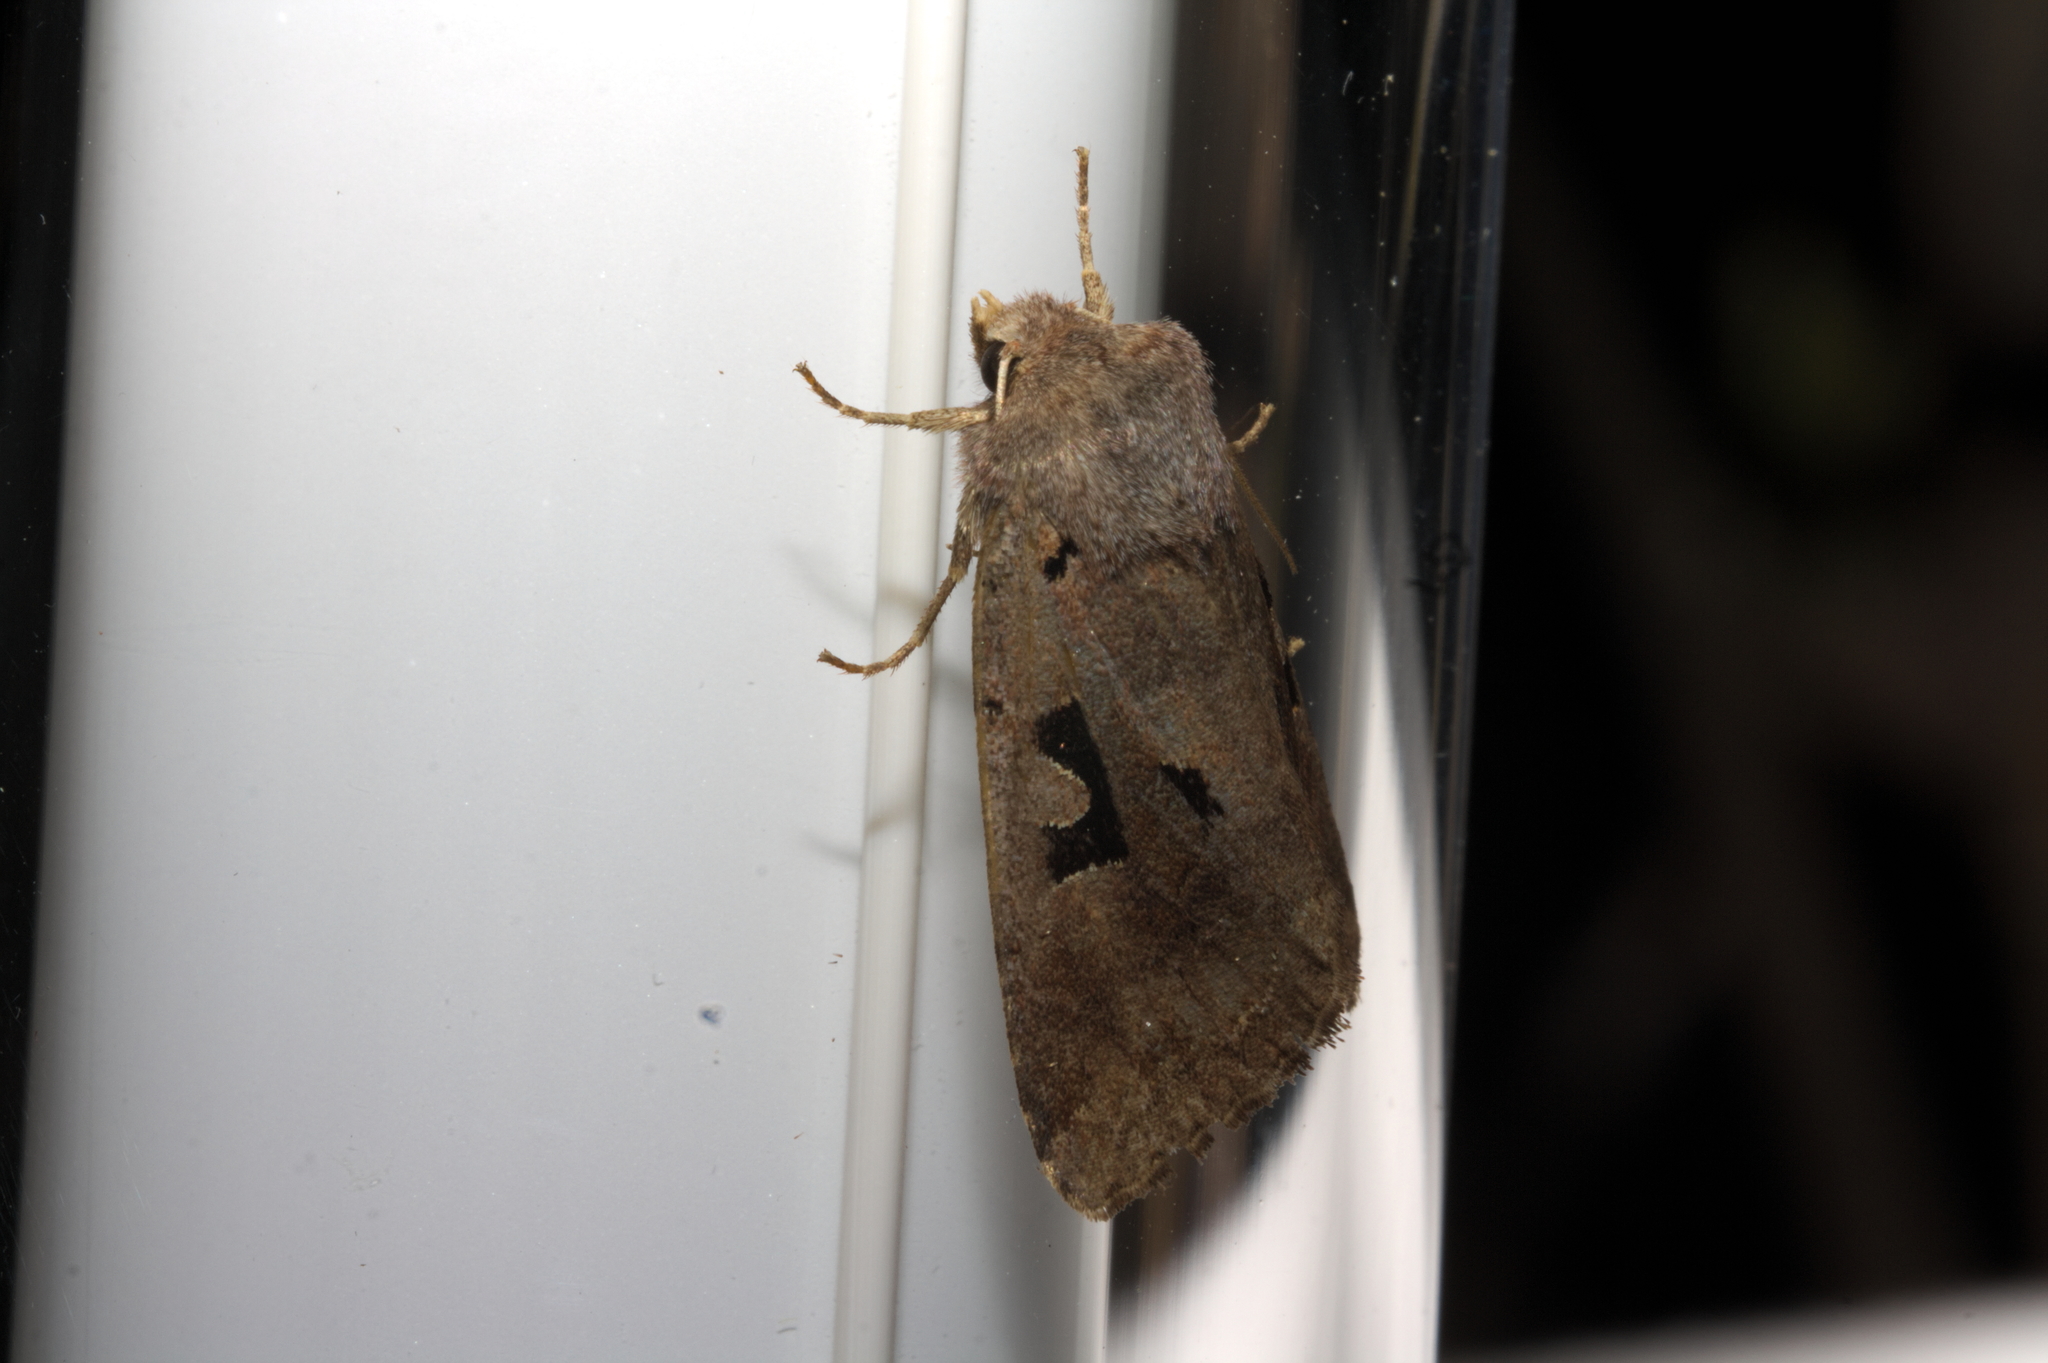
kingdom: Animalia
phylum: Arthropoda
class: Insecta
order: Lepidoptera
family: Noctuidae
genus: Orthosia
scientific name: Orthosia gothica
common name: Hebrew character
